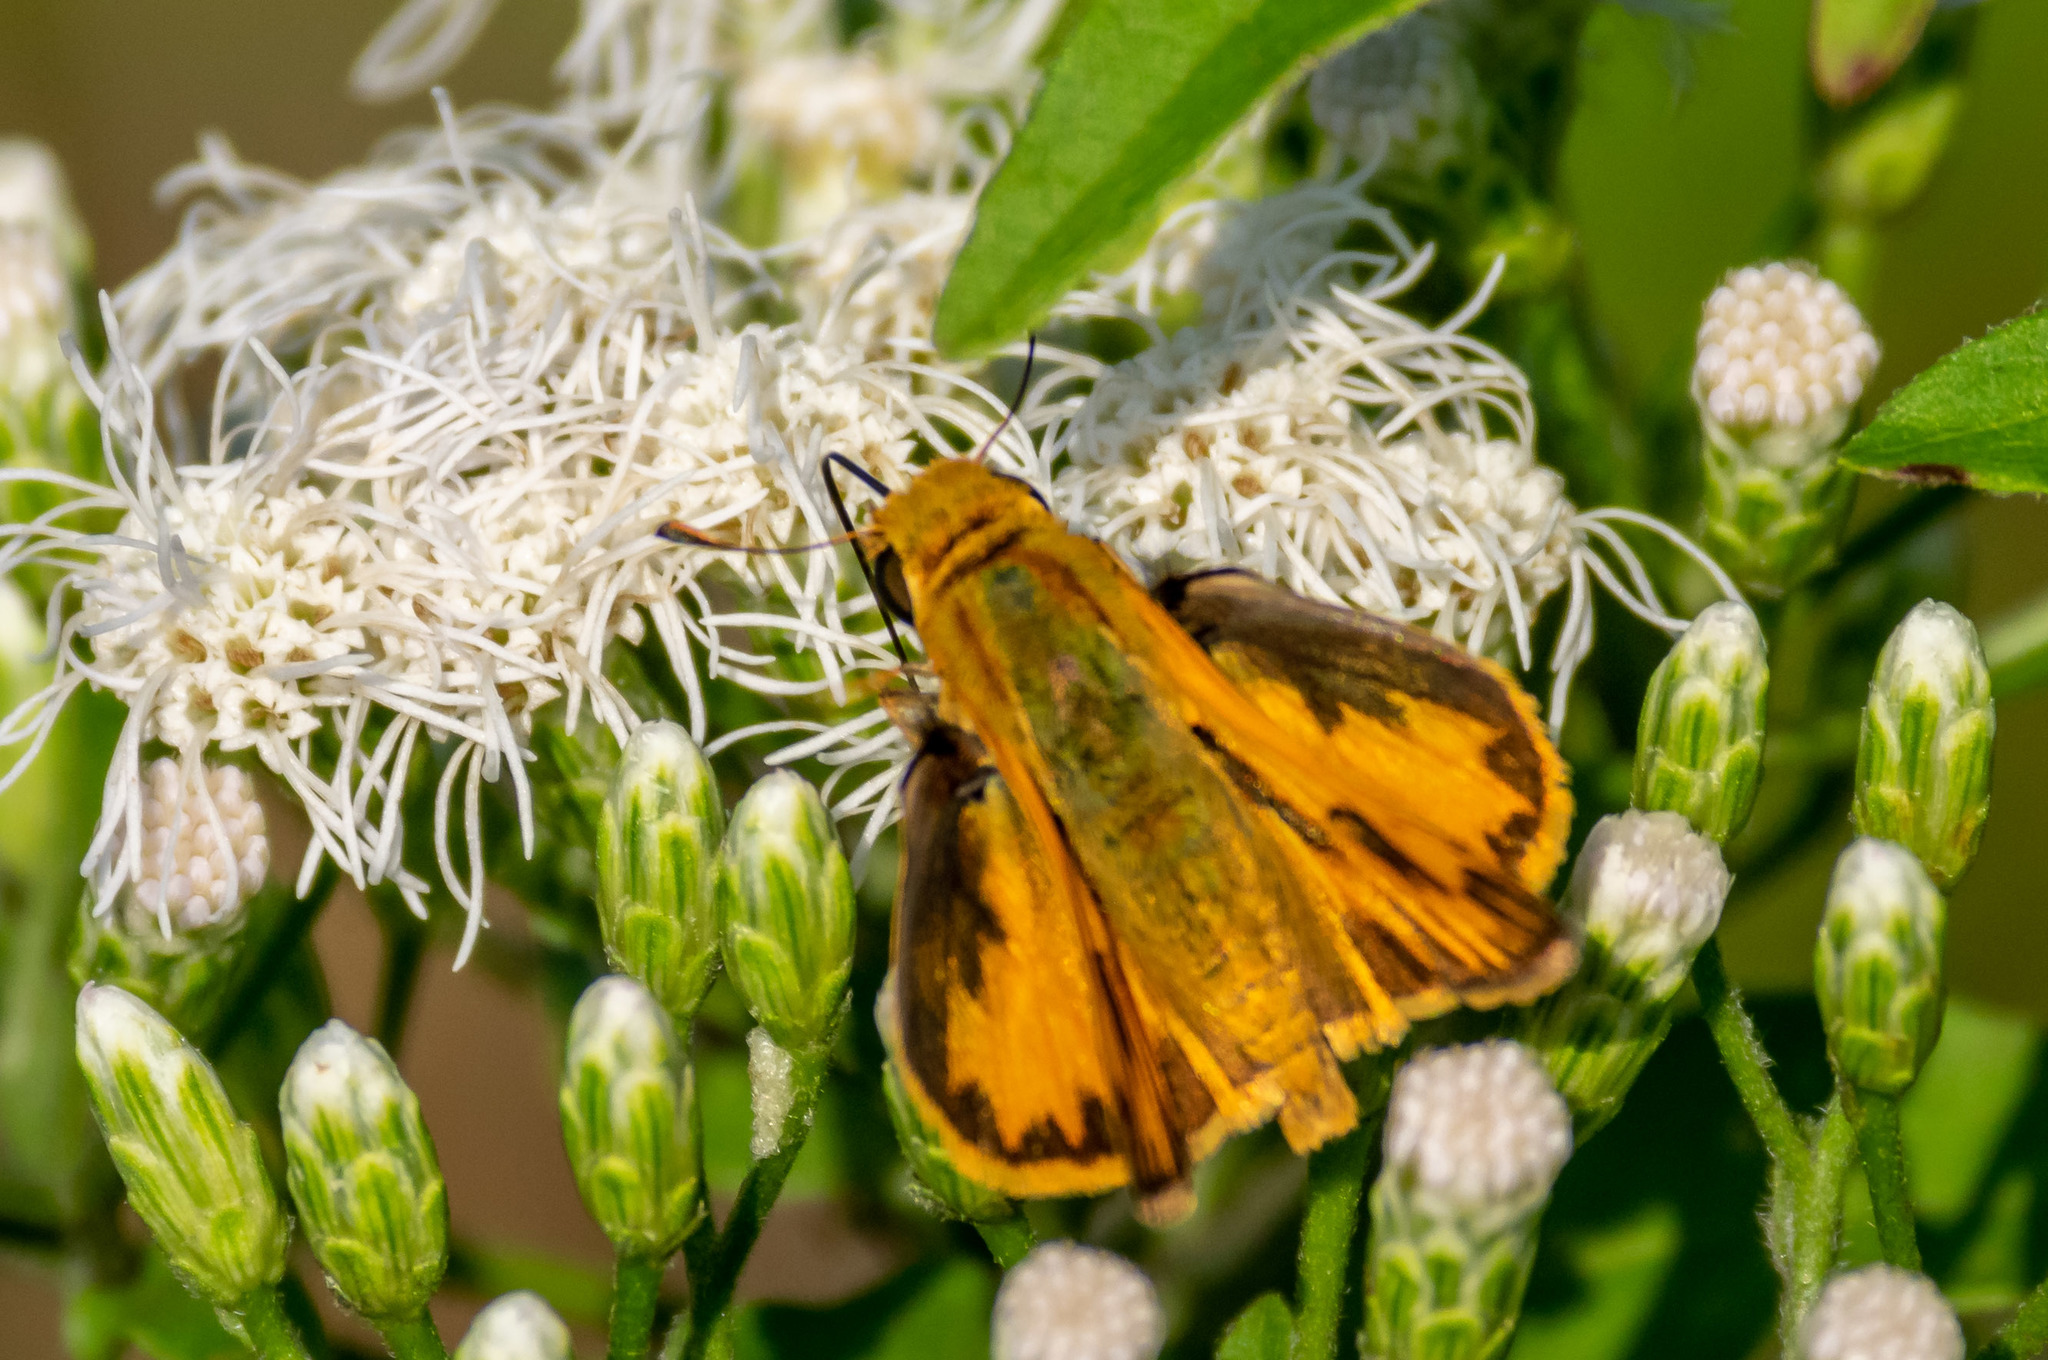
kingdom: Animalia
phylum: Arthropoda
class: Insecta
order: Lepidoptera
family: Hesperiidae
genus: Hylephila
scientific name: Hylephila phyleus
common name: Fiery skipper
